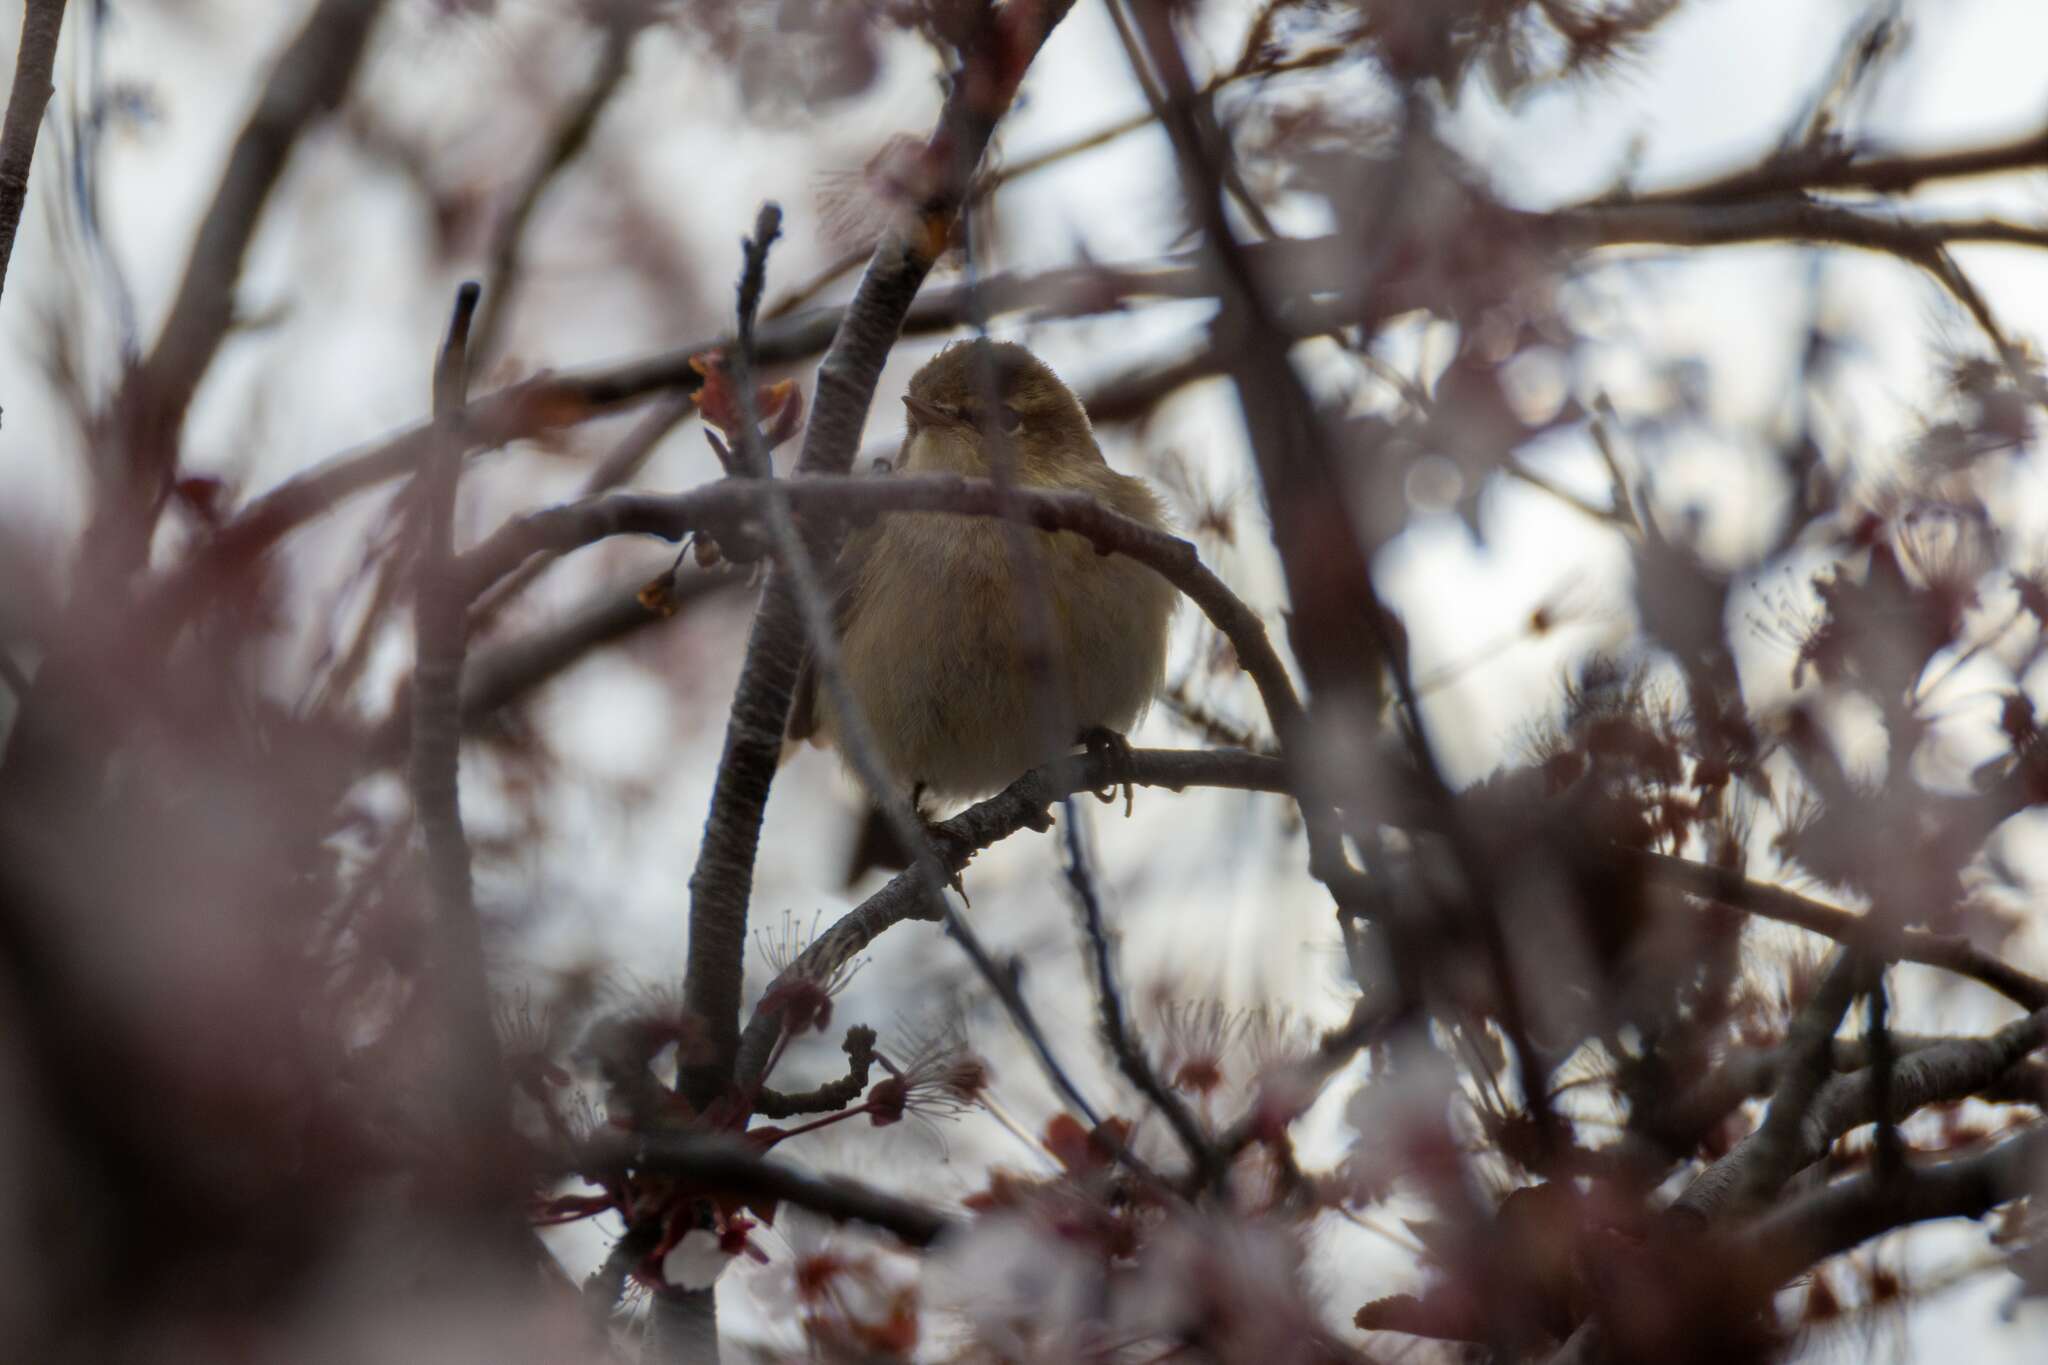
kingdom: Animalia
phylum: Chordata
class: Aves
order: Passeriformes
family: Phylloscopidae
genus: Phylloscopus
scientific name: Phylloscopus collybita
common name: Common chiffchaff
